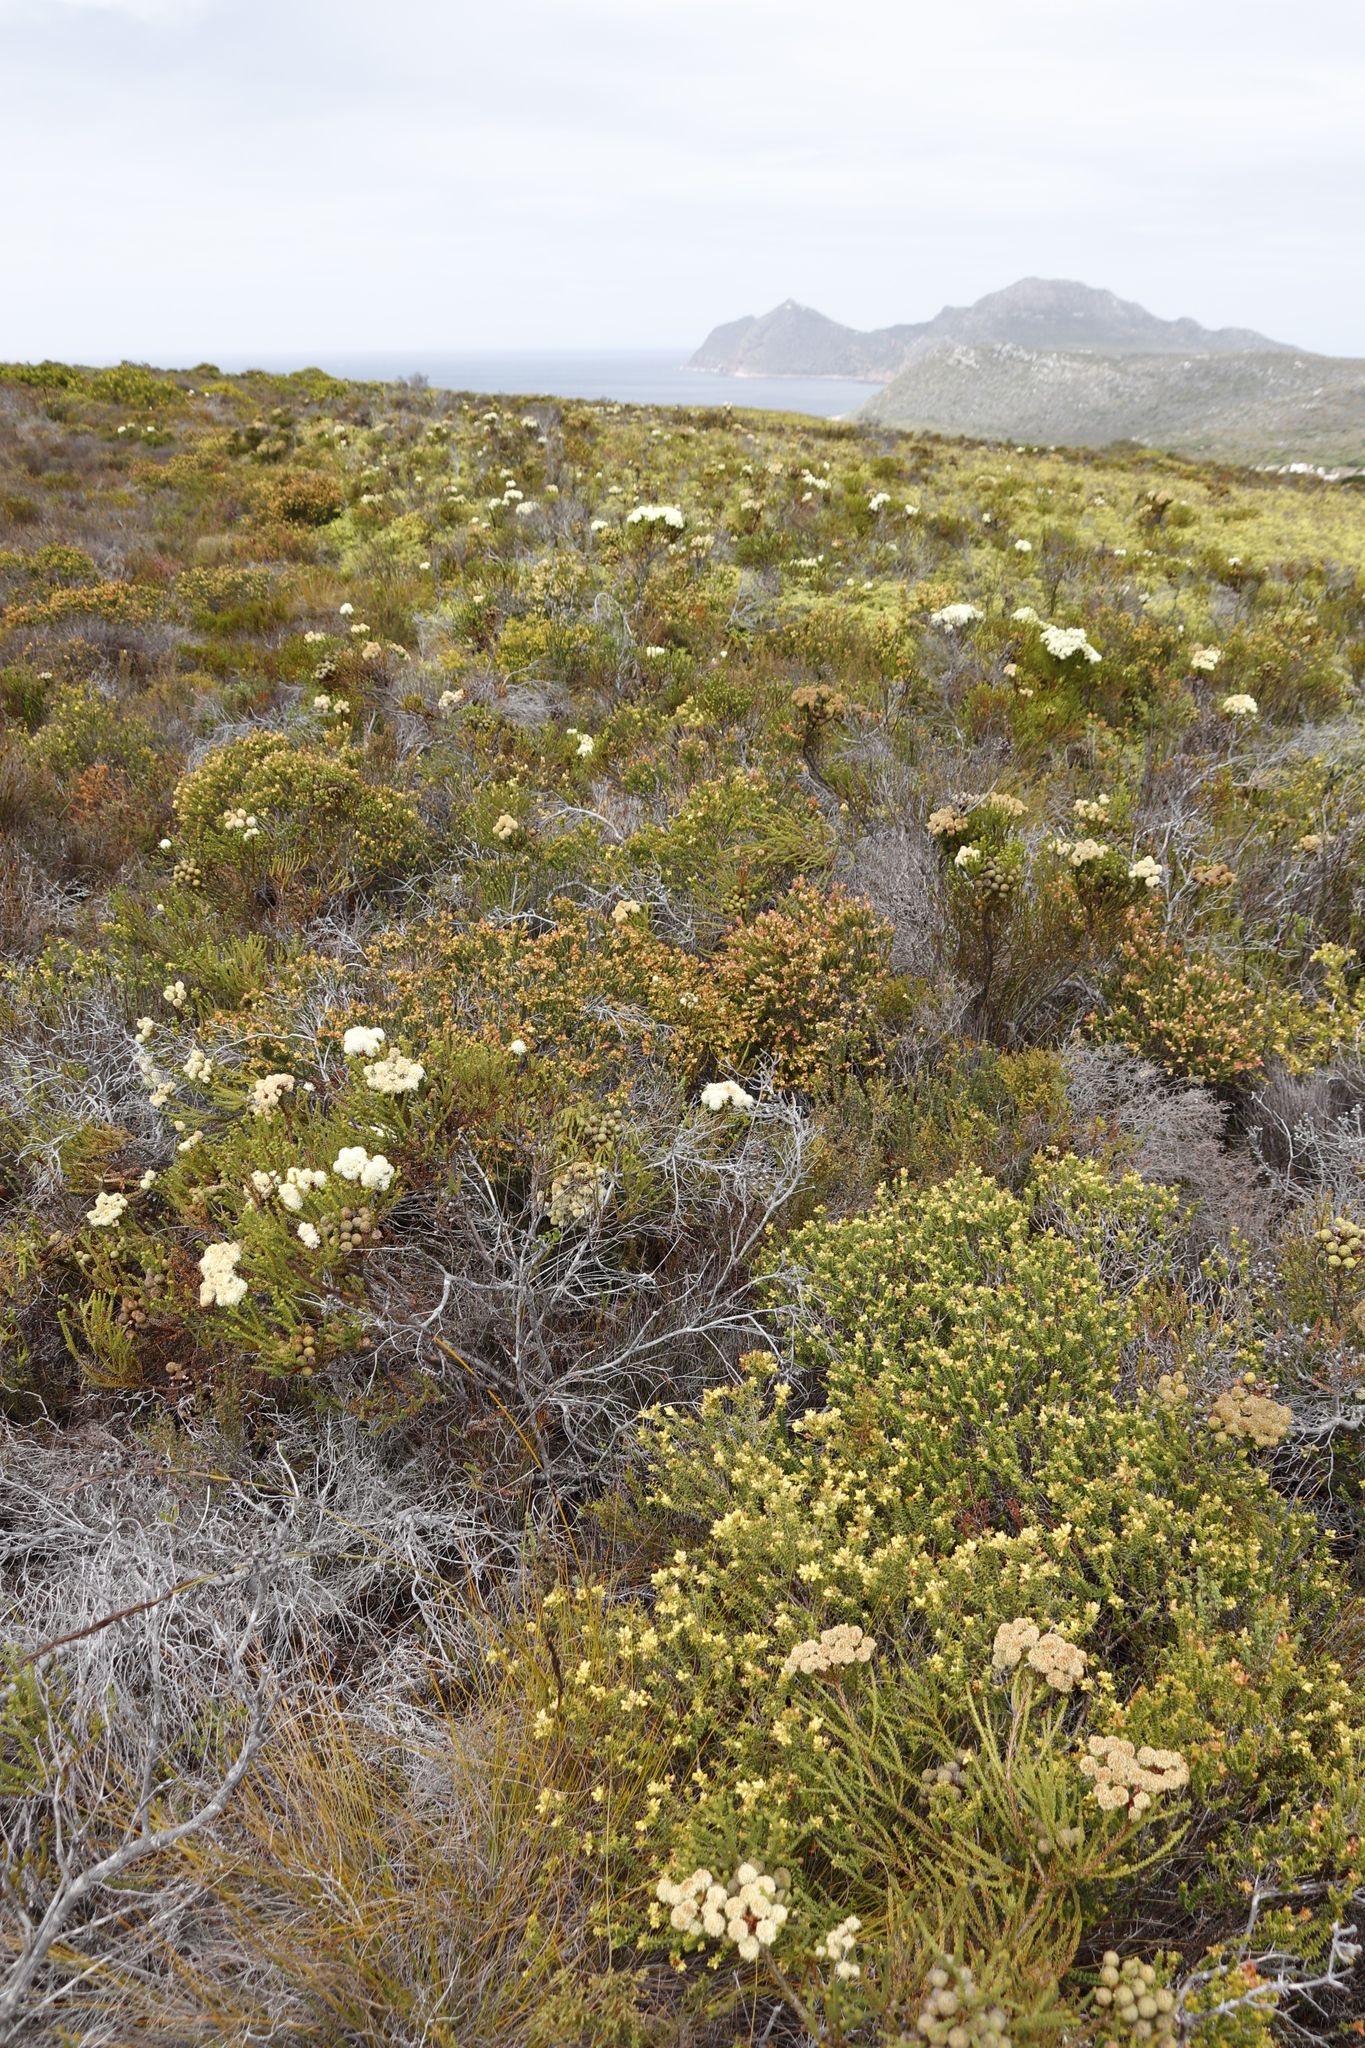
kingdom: Plantae
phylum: Tracheophyta
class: Magnoliopsida
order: Myrtales
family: Penaeaceae
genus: Penaea
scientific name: Penaea mucronata
